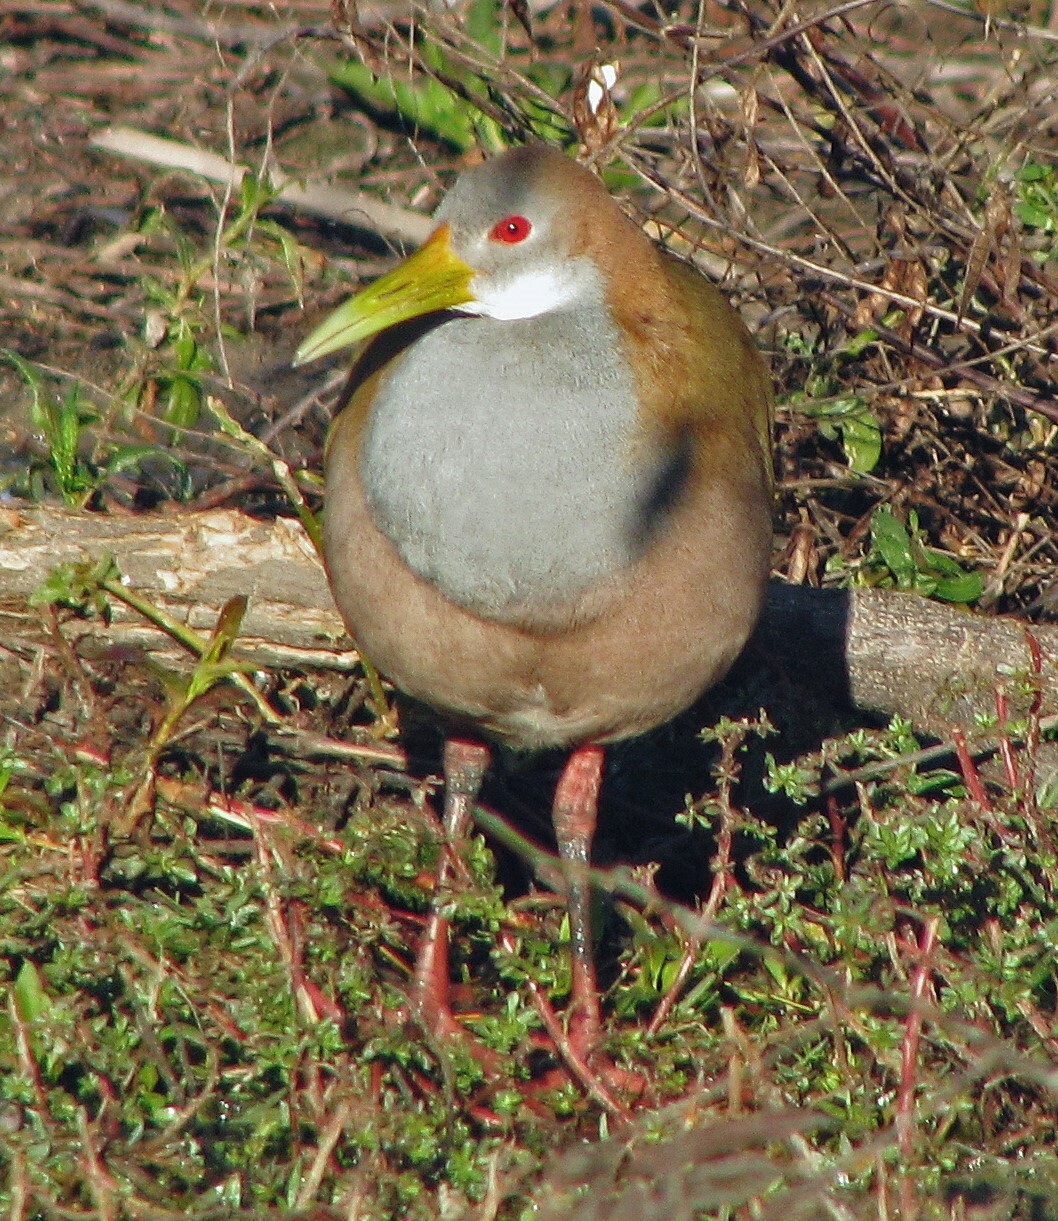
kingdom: Animalia
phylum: Chordata
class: Aves
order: Gruiformes
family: Rallidae
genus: Aramides
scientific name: Aramides ypecaha
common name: Giant wood rail
